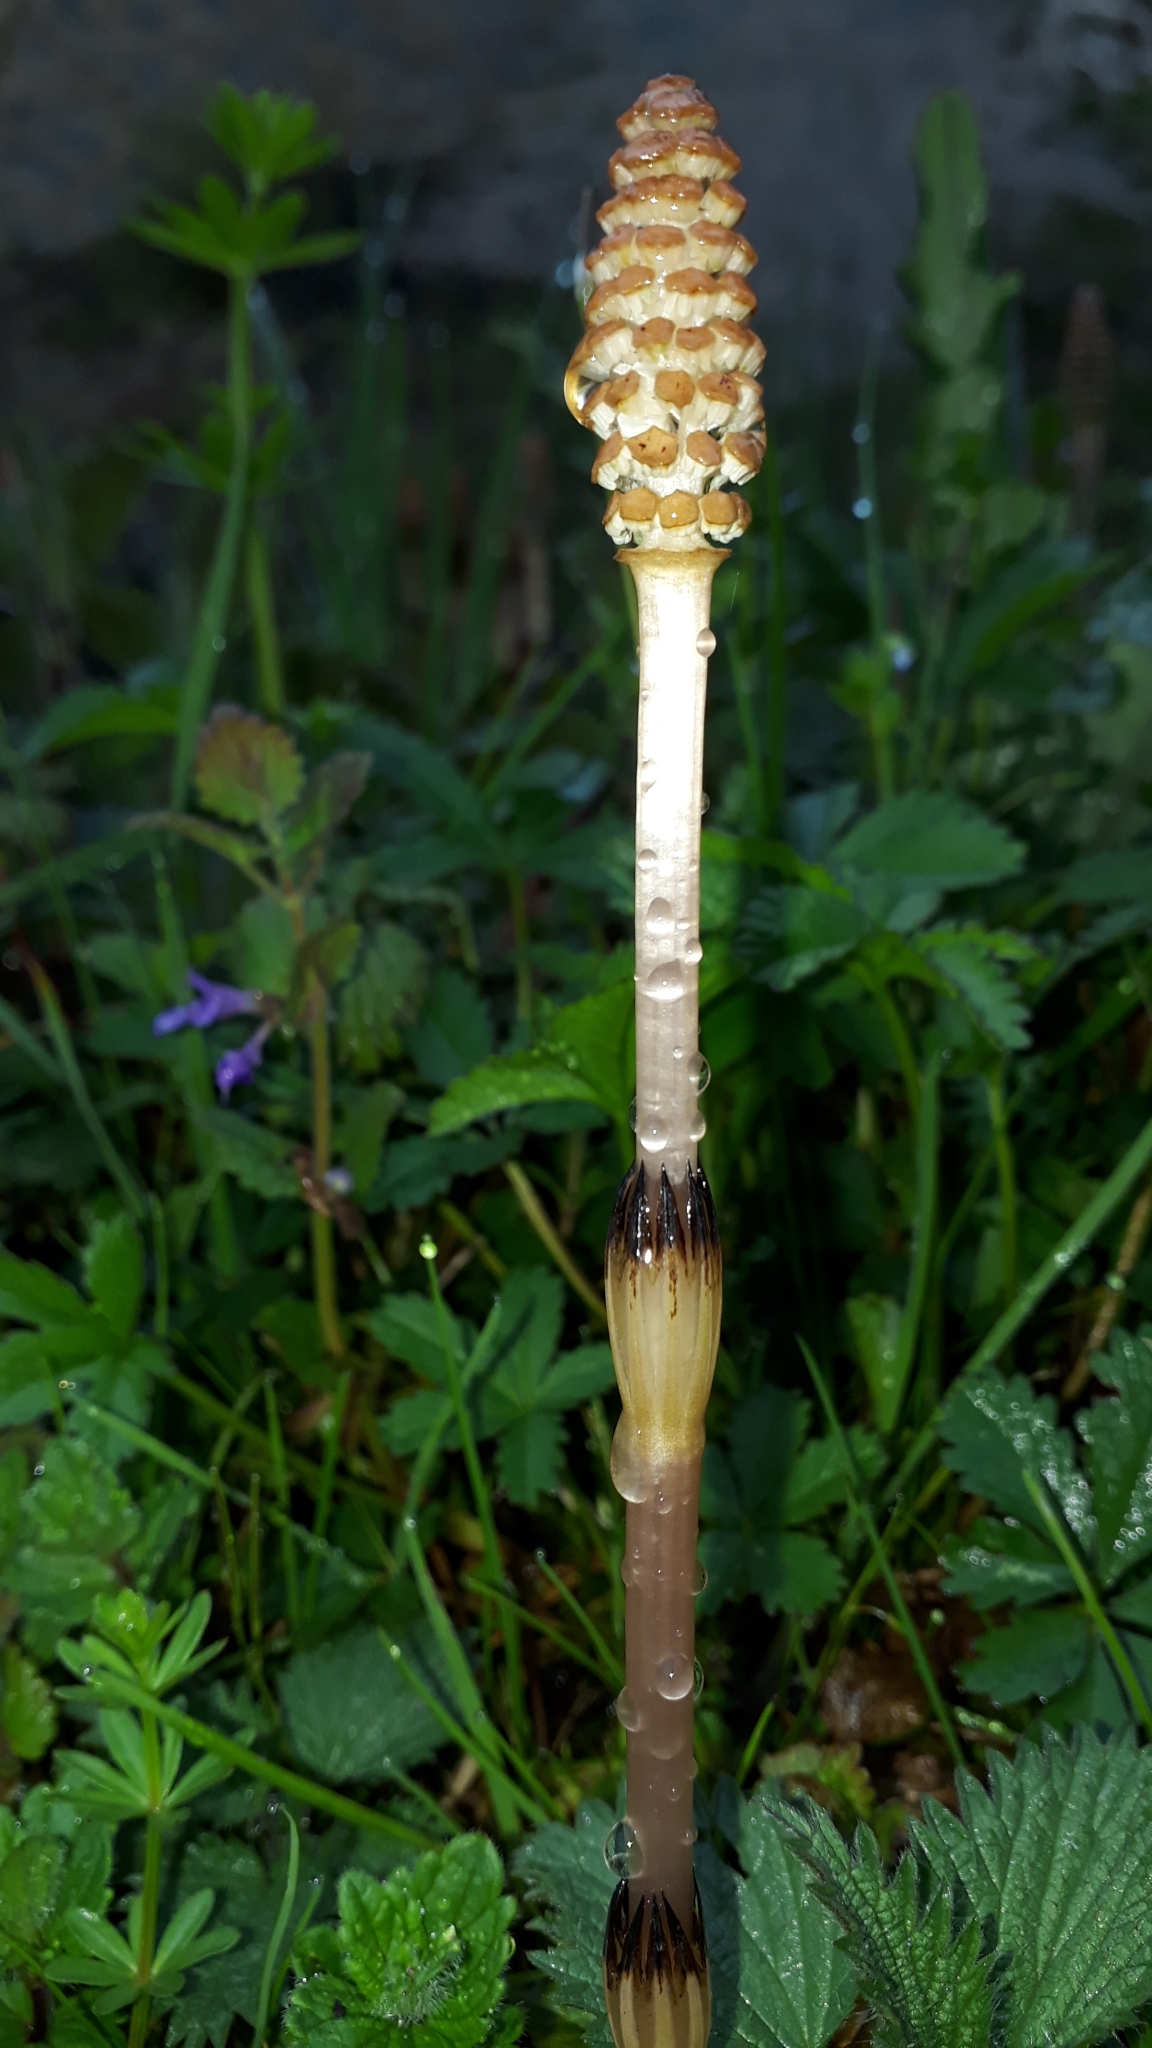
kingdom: Plantae
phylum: Tracheophyta
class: Polypodiopsida
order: Equisetales
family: Equisetaceae
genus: Equisetum
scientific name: Equisetum arvense
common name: Field horsetail
